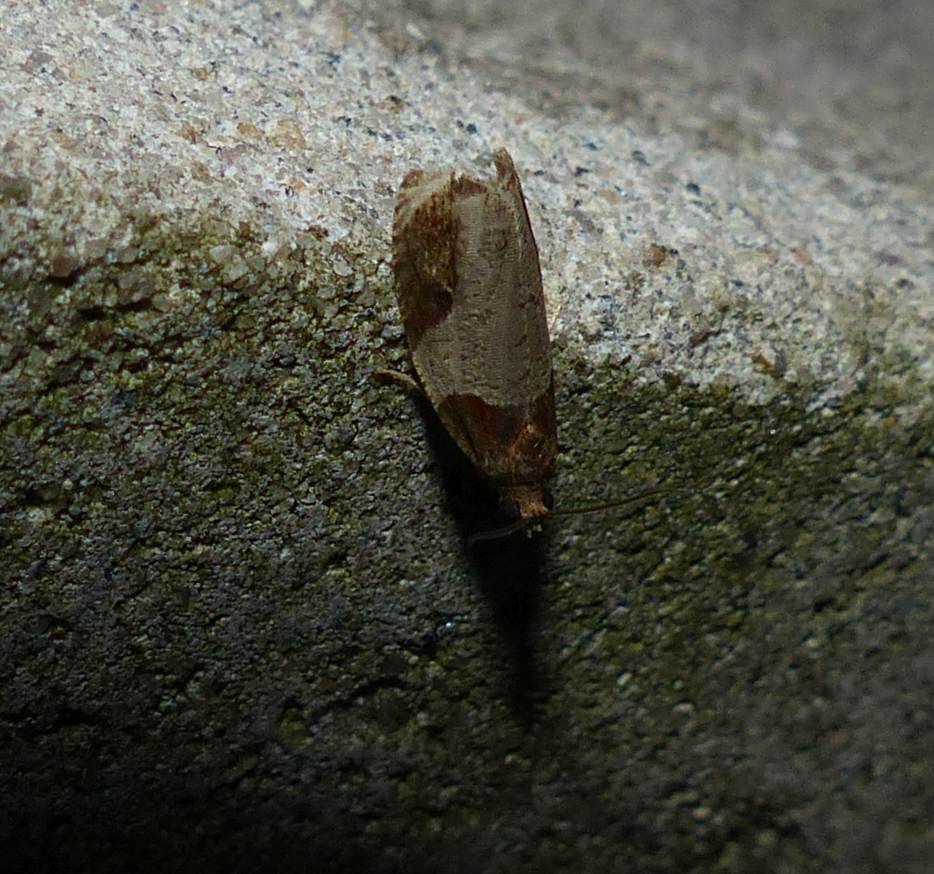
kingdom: Animalia
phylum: Arthropoda
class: Insecta
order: Lepidoptera
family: Tortricidae
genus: Olethreutes
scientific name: Olethreutes ferriferana
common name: Hydrangea leaftier moth
